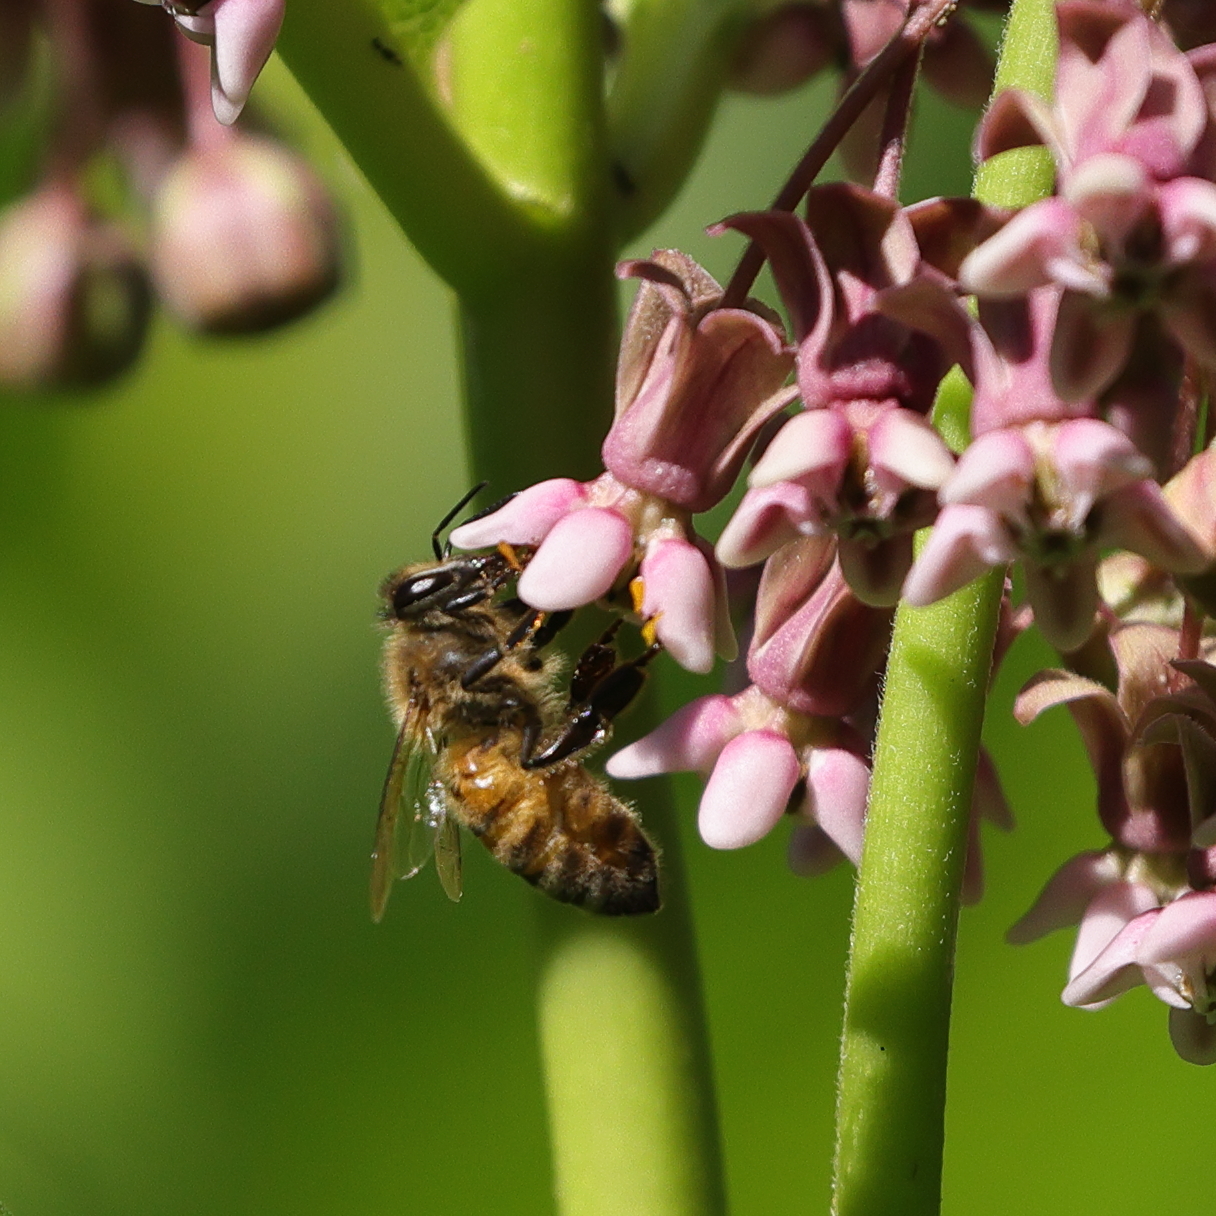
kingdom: Animalia
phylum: Arthropoda
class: Insecta
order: Hymenoptera
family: Apidae
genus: Apis
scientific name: Apis mellifera
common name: Honey bee
